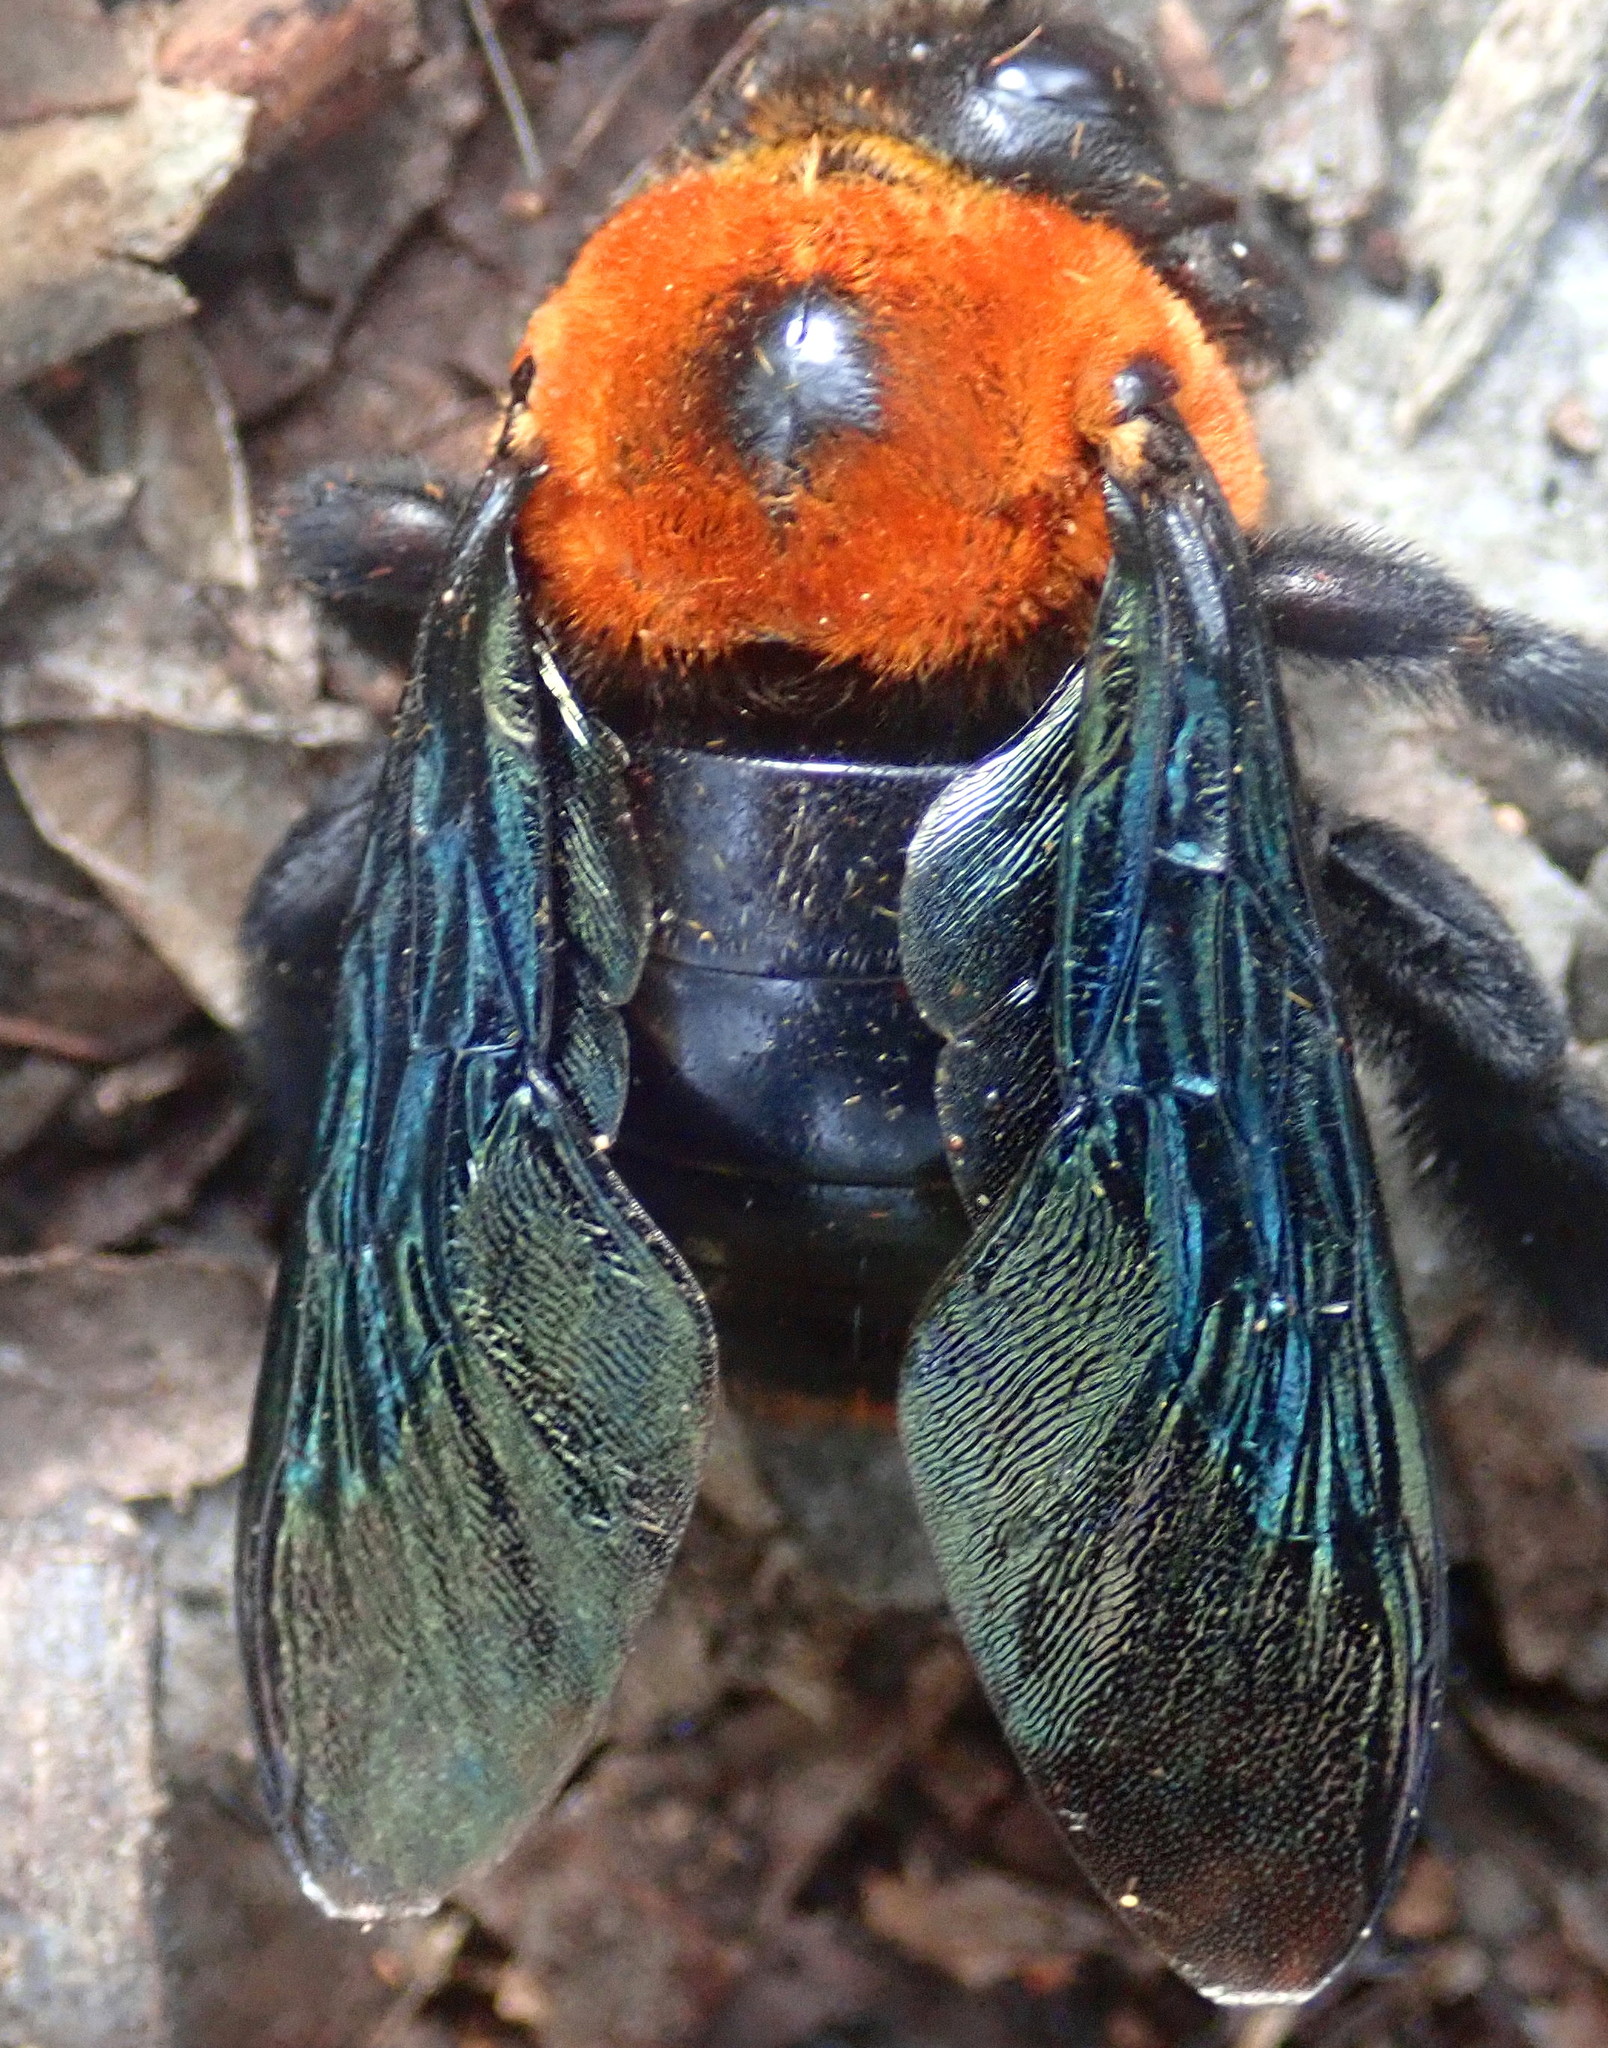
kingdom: Animalia
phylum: Arthropoda
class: Insecta
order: Hymenoptera
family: Apidae
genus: Xylocopa
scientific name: Xylocopa flavorufa
